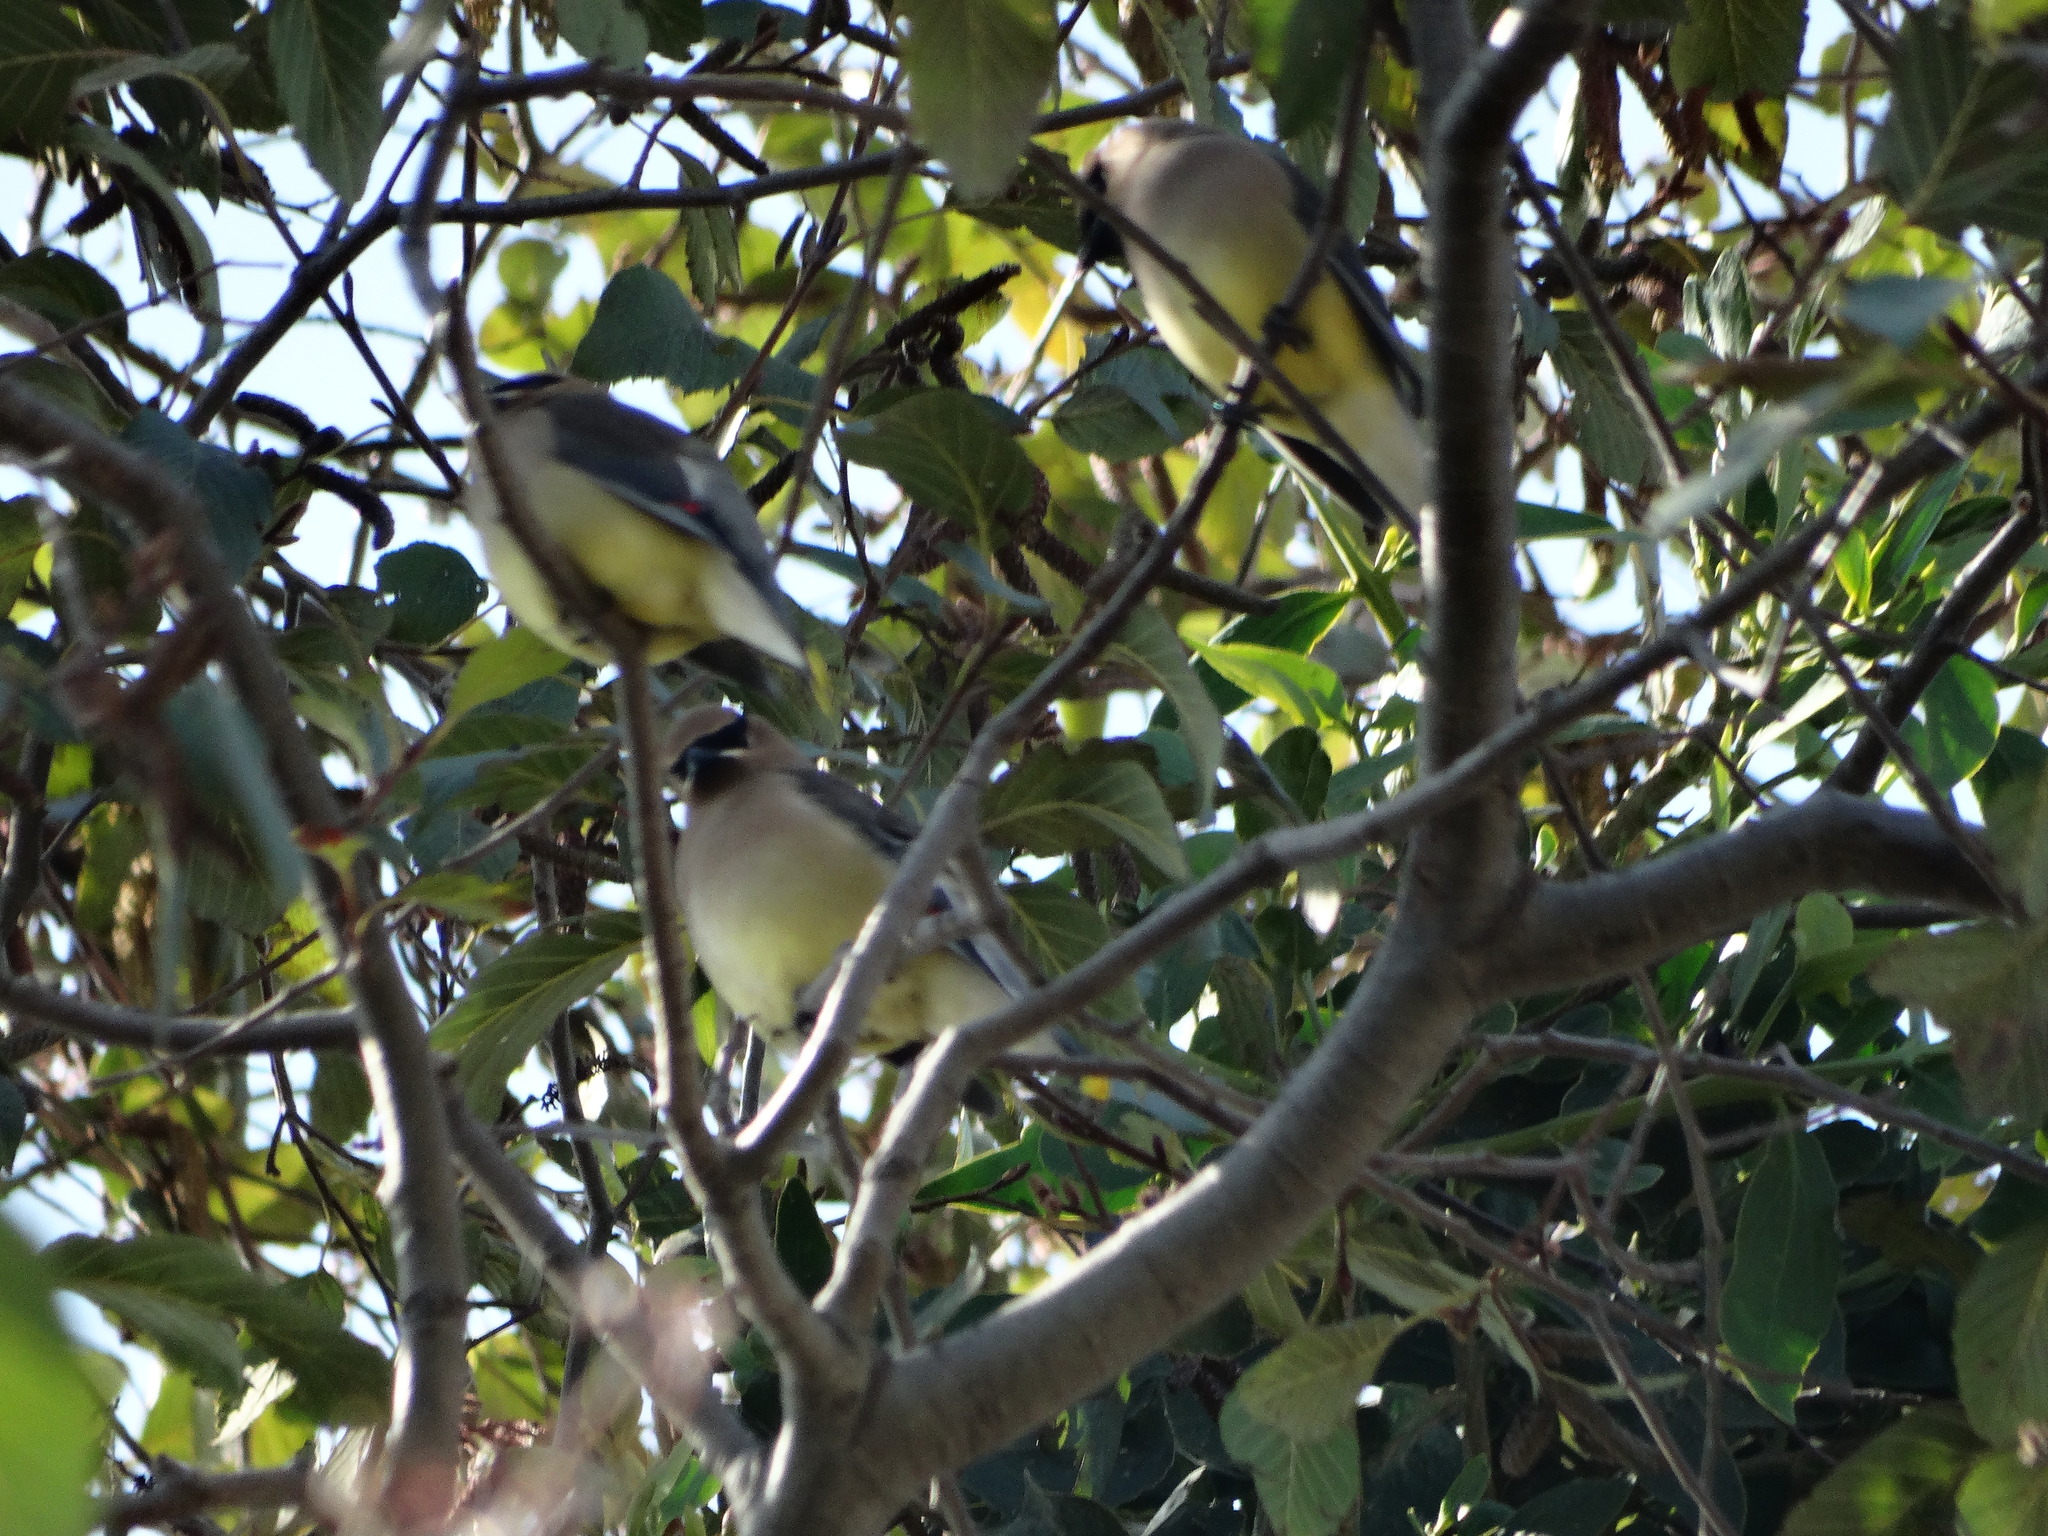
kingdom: Animalia
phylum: Chordata
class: Aves
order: Passeriformes
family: Bombycillidae
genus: Bombycilla
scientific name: Bombycilla cedrorum
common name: Cedar waxwing
